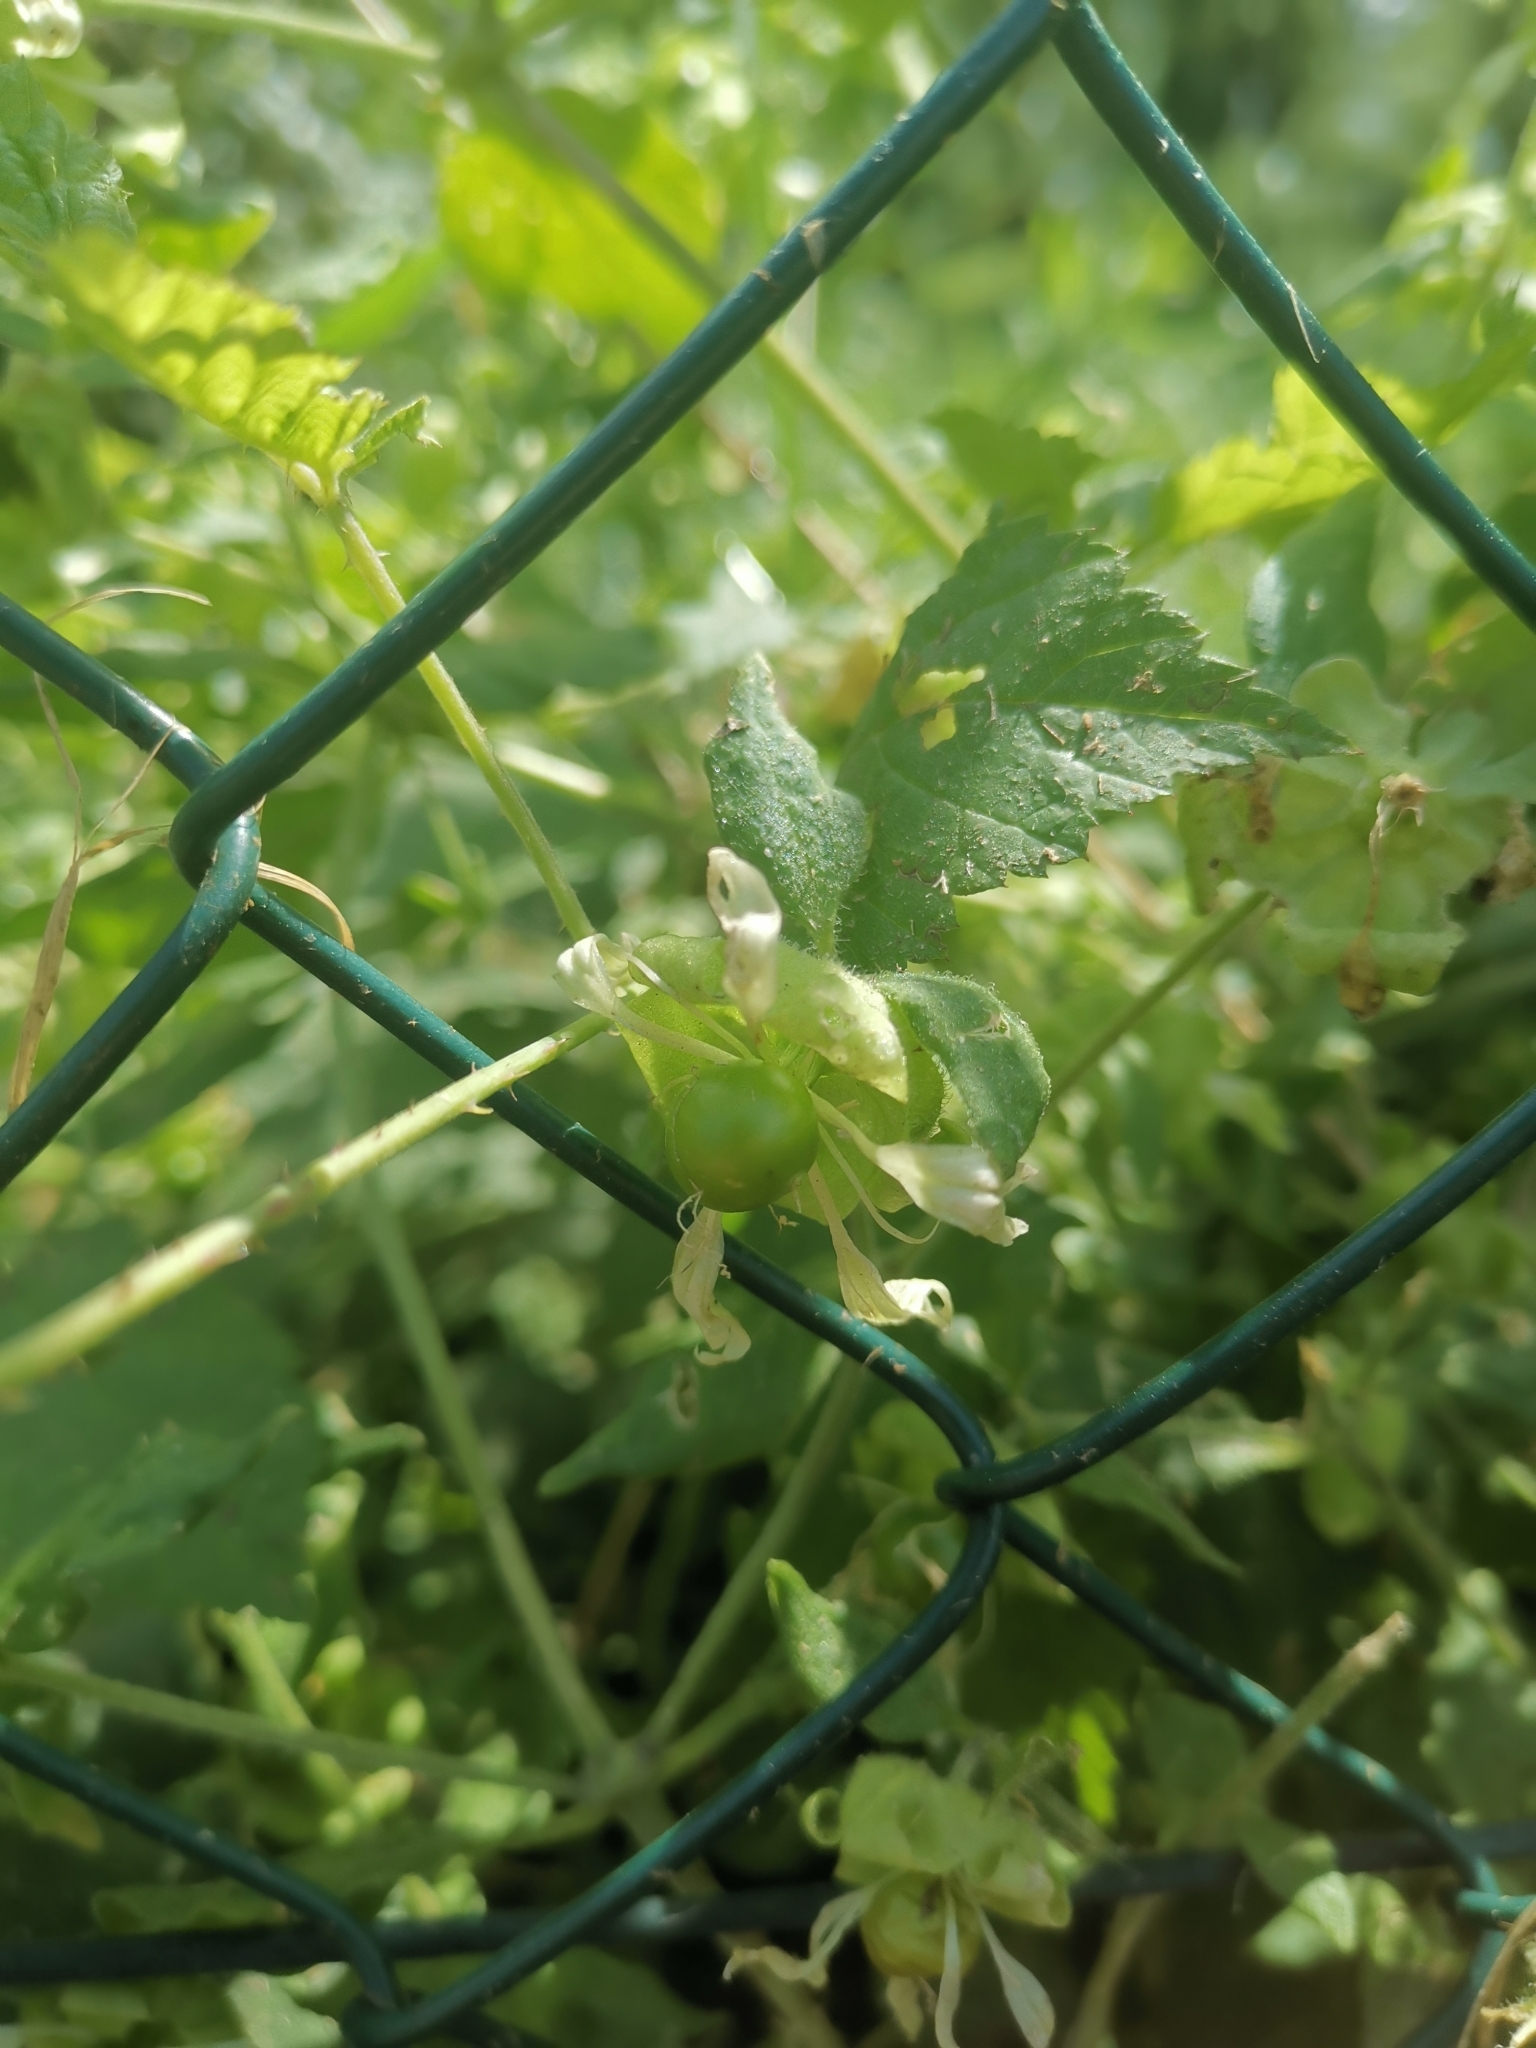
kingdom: Plantae
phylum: Tracheophyta
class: Magnoliopsida
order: Caryophyllales
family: Caryophyllaceae
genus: Silene
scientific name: Silene baccifera
